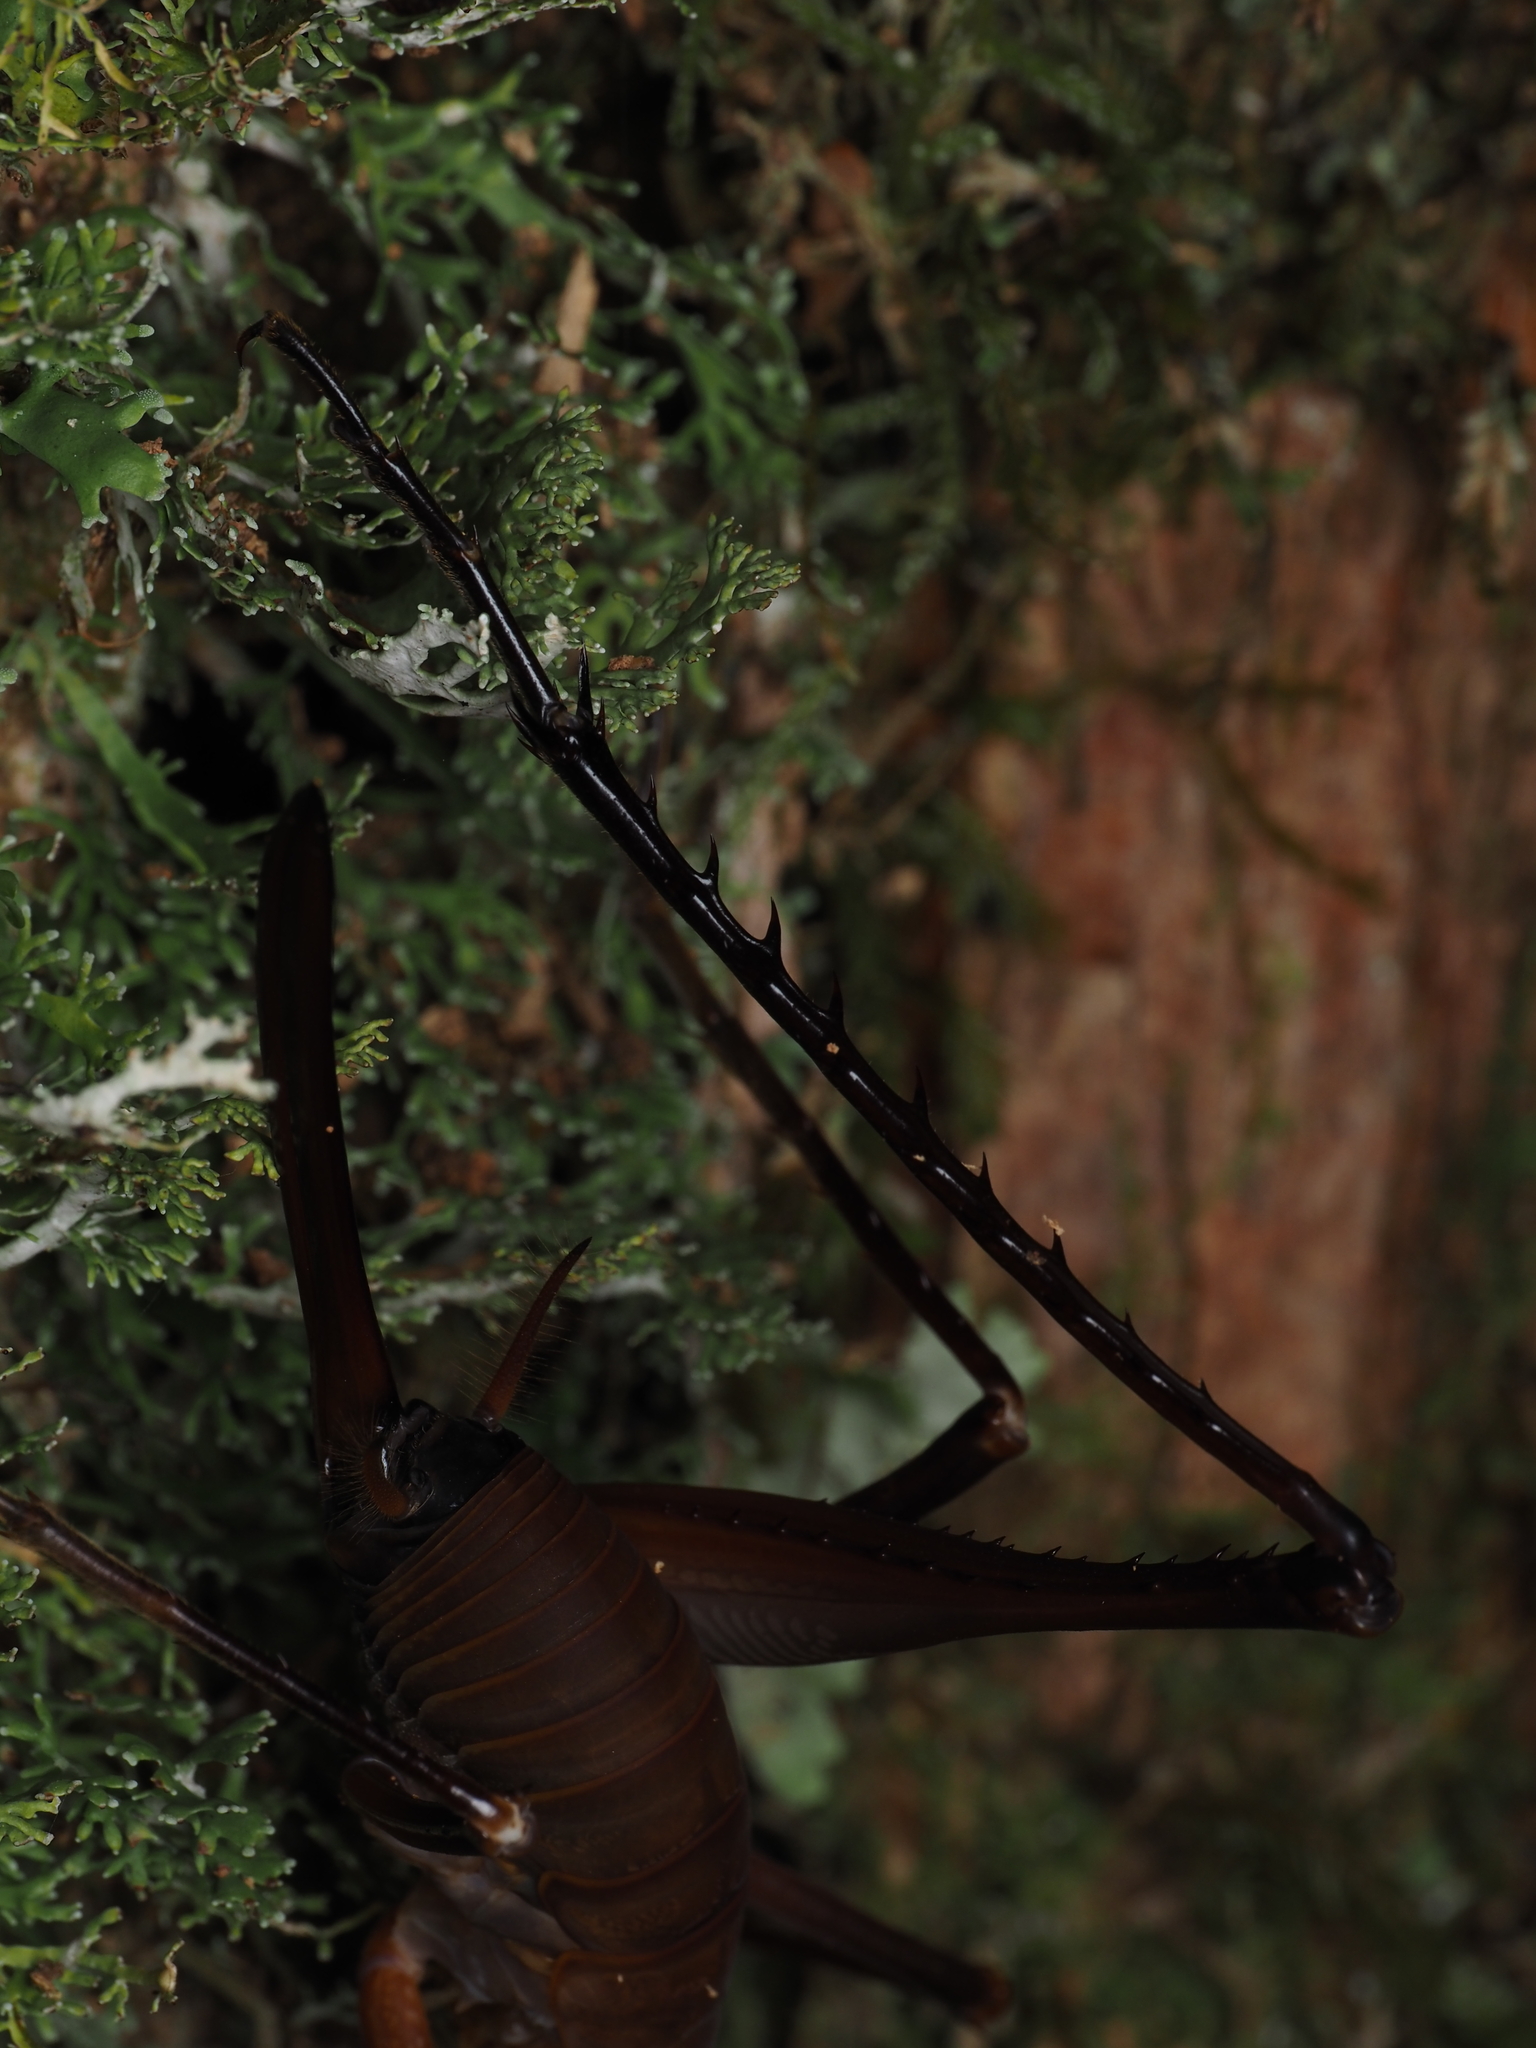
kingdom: Animalia
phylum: Arthropoda
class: Insecta
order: Orthoptera
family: Rhaphidophoridae
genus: Pachyrhamma
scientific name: Pachyrhamma longipes
